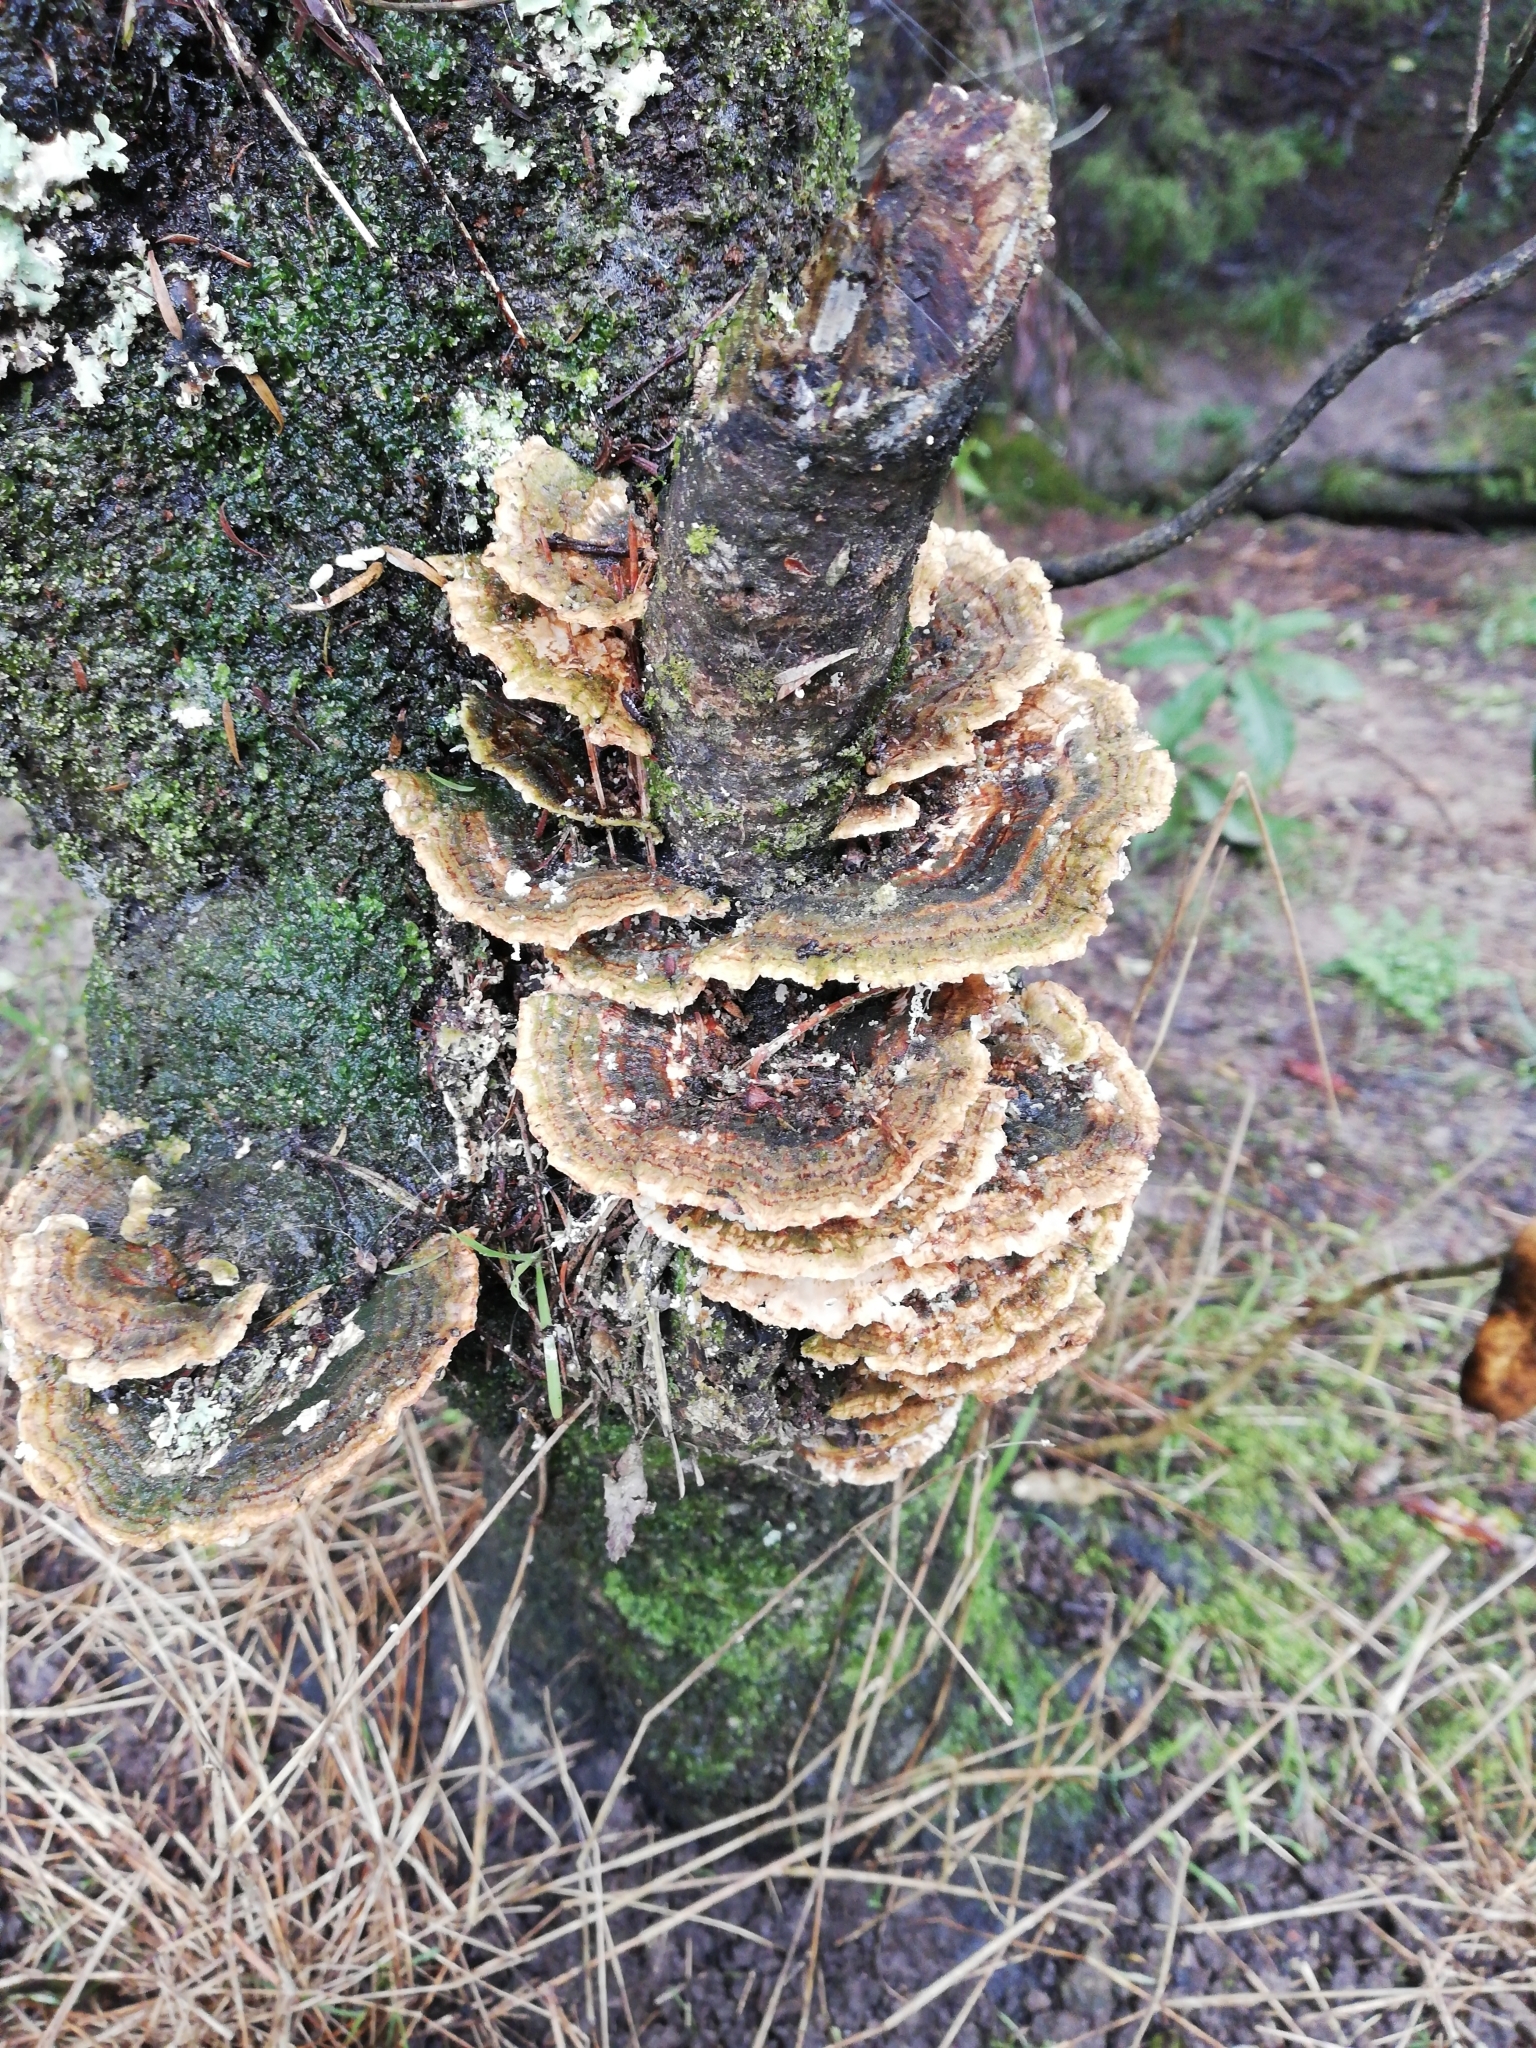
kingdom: Fungi
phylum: Basidiomycota
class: Agaricomycetes
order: Polyporales
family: Polyporaceae
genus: Trametes
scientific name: Trametes versicolor
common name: Turkeytail
